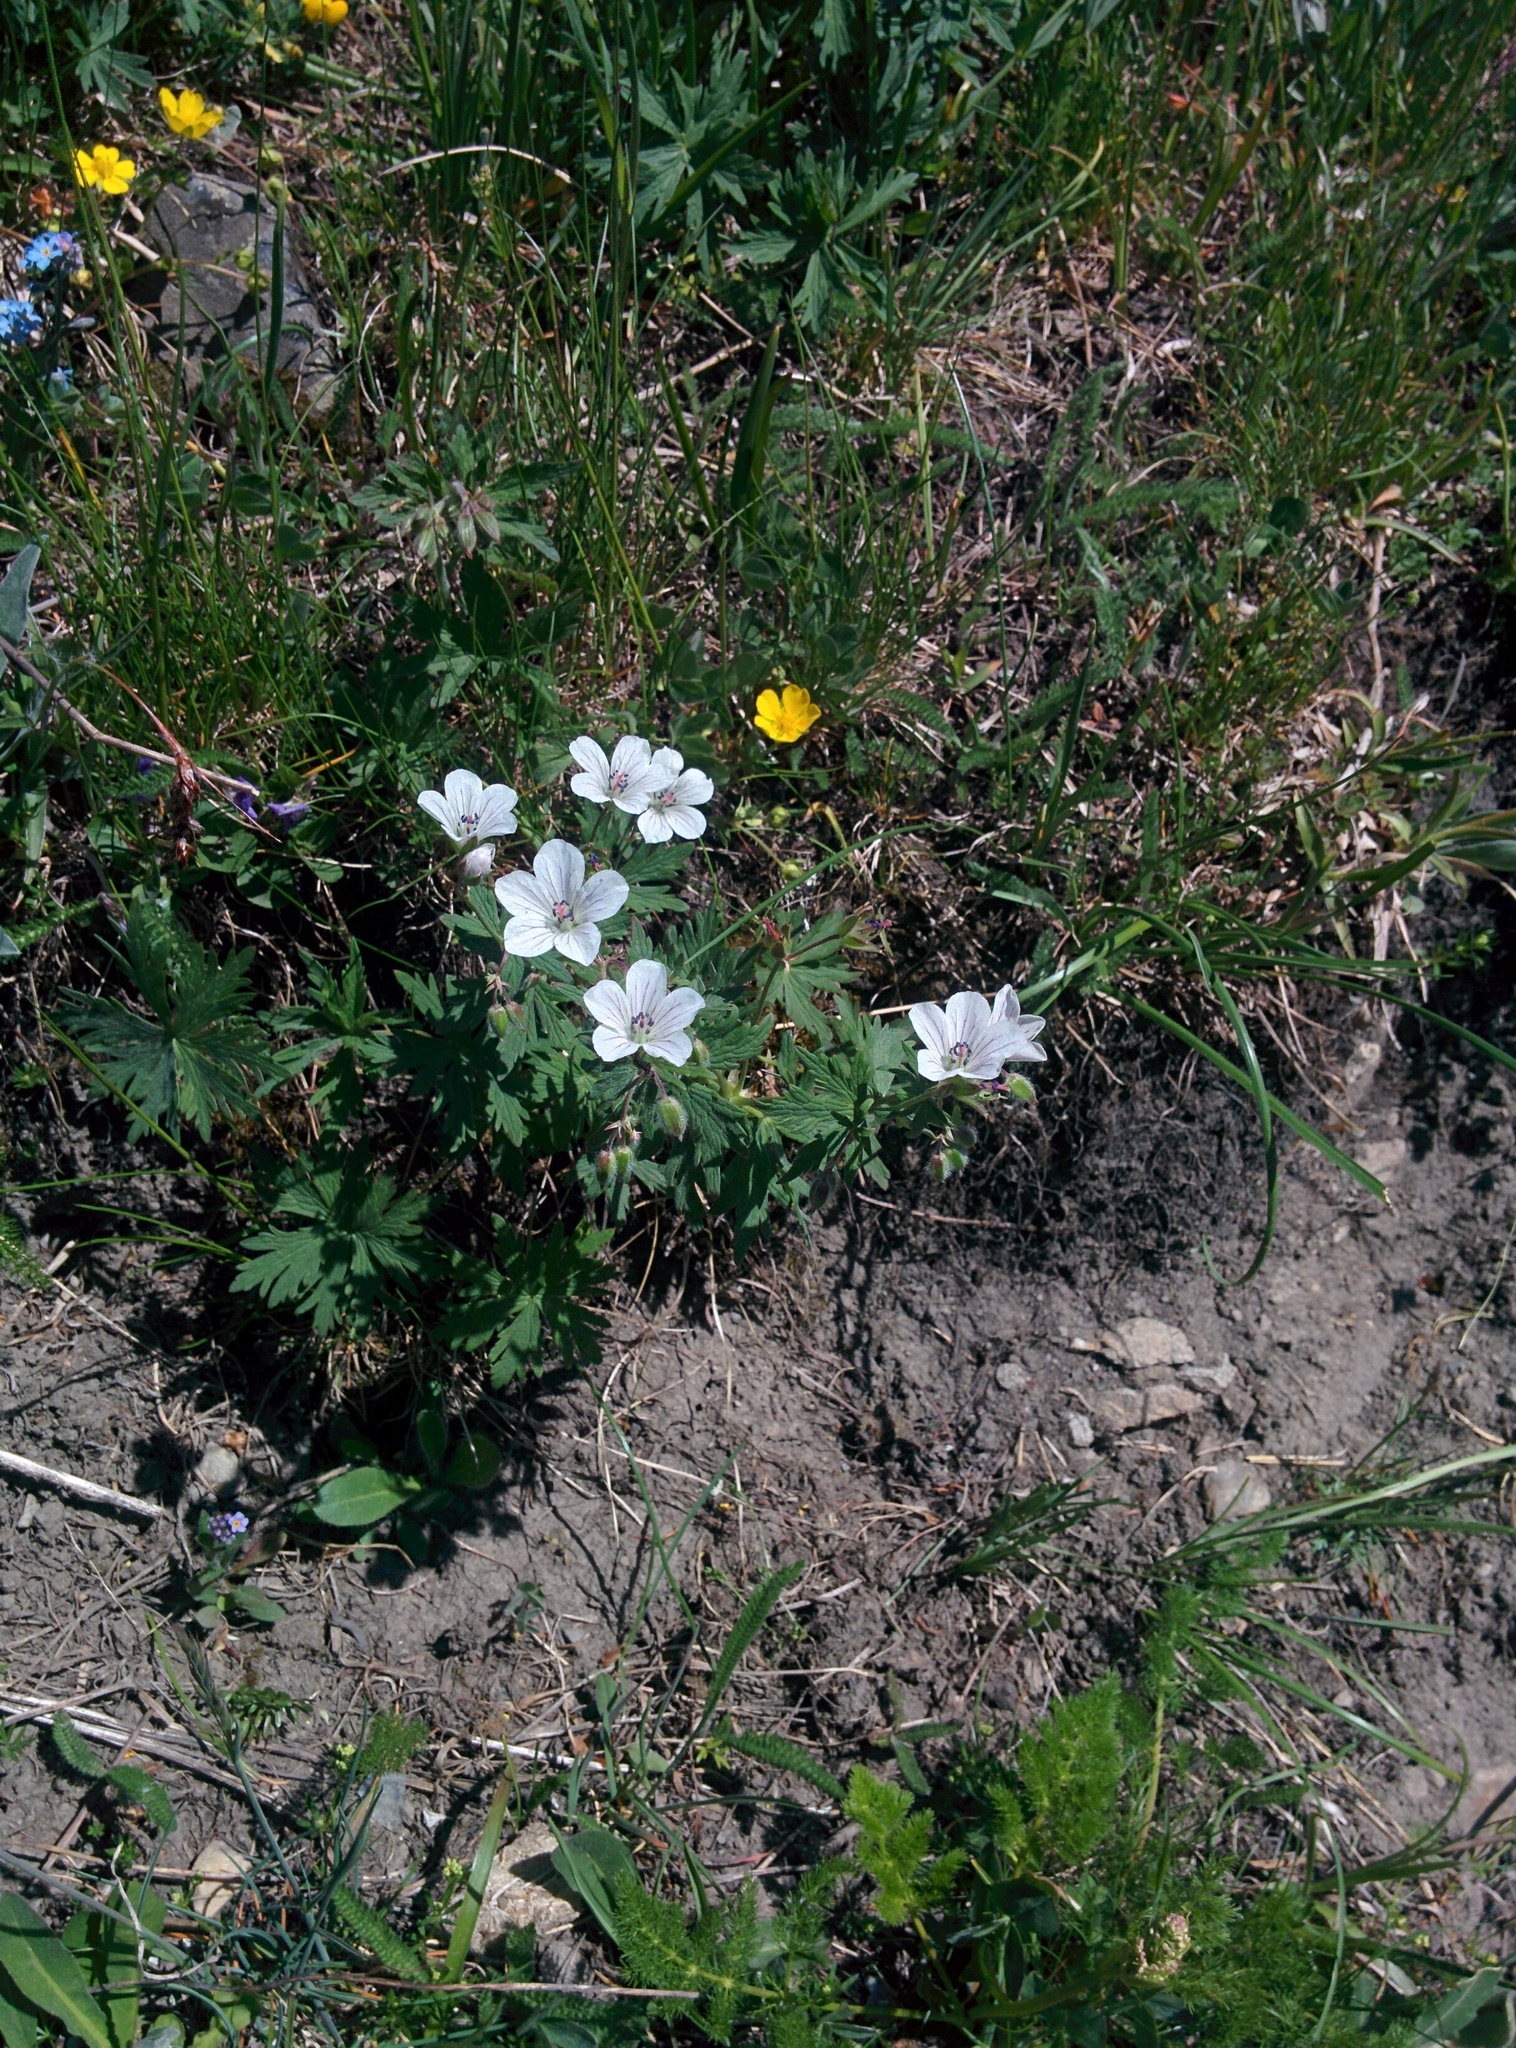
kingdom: Plantae
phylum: Tracheophyta
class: Magnoliopsida
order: Geraniales
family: Geraniaceae
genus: Geranium
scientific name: Geranium rivulare
